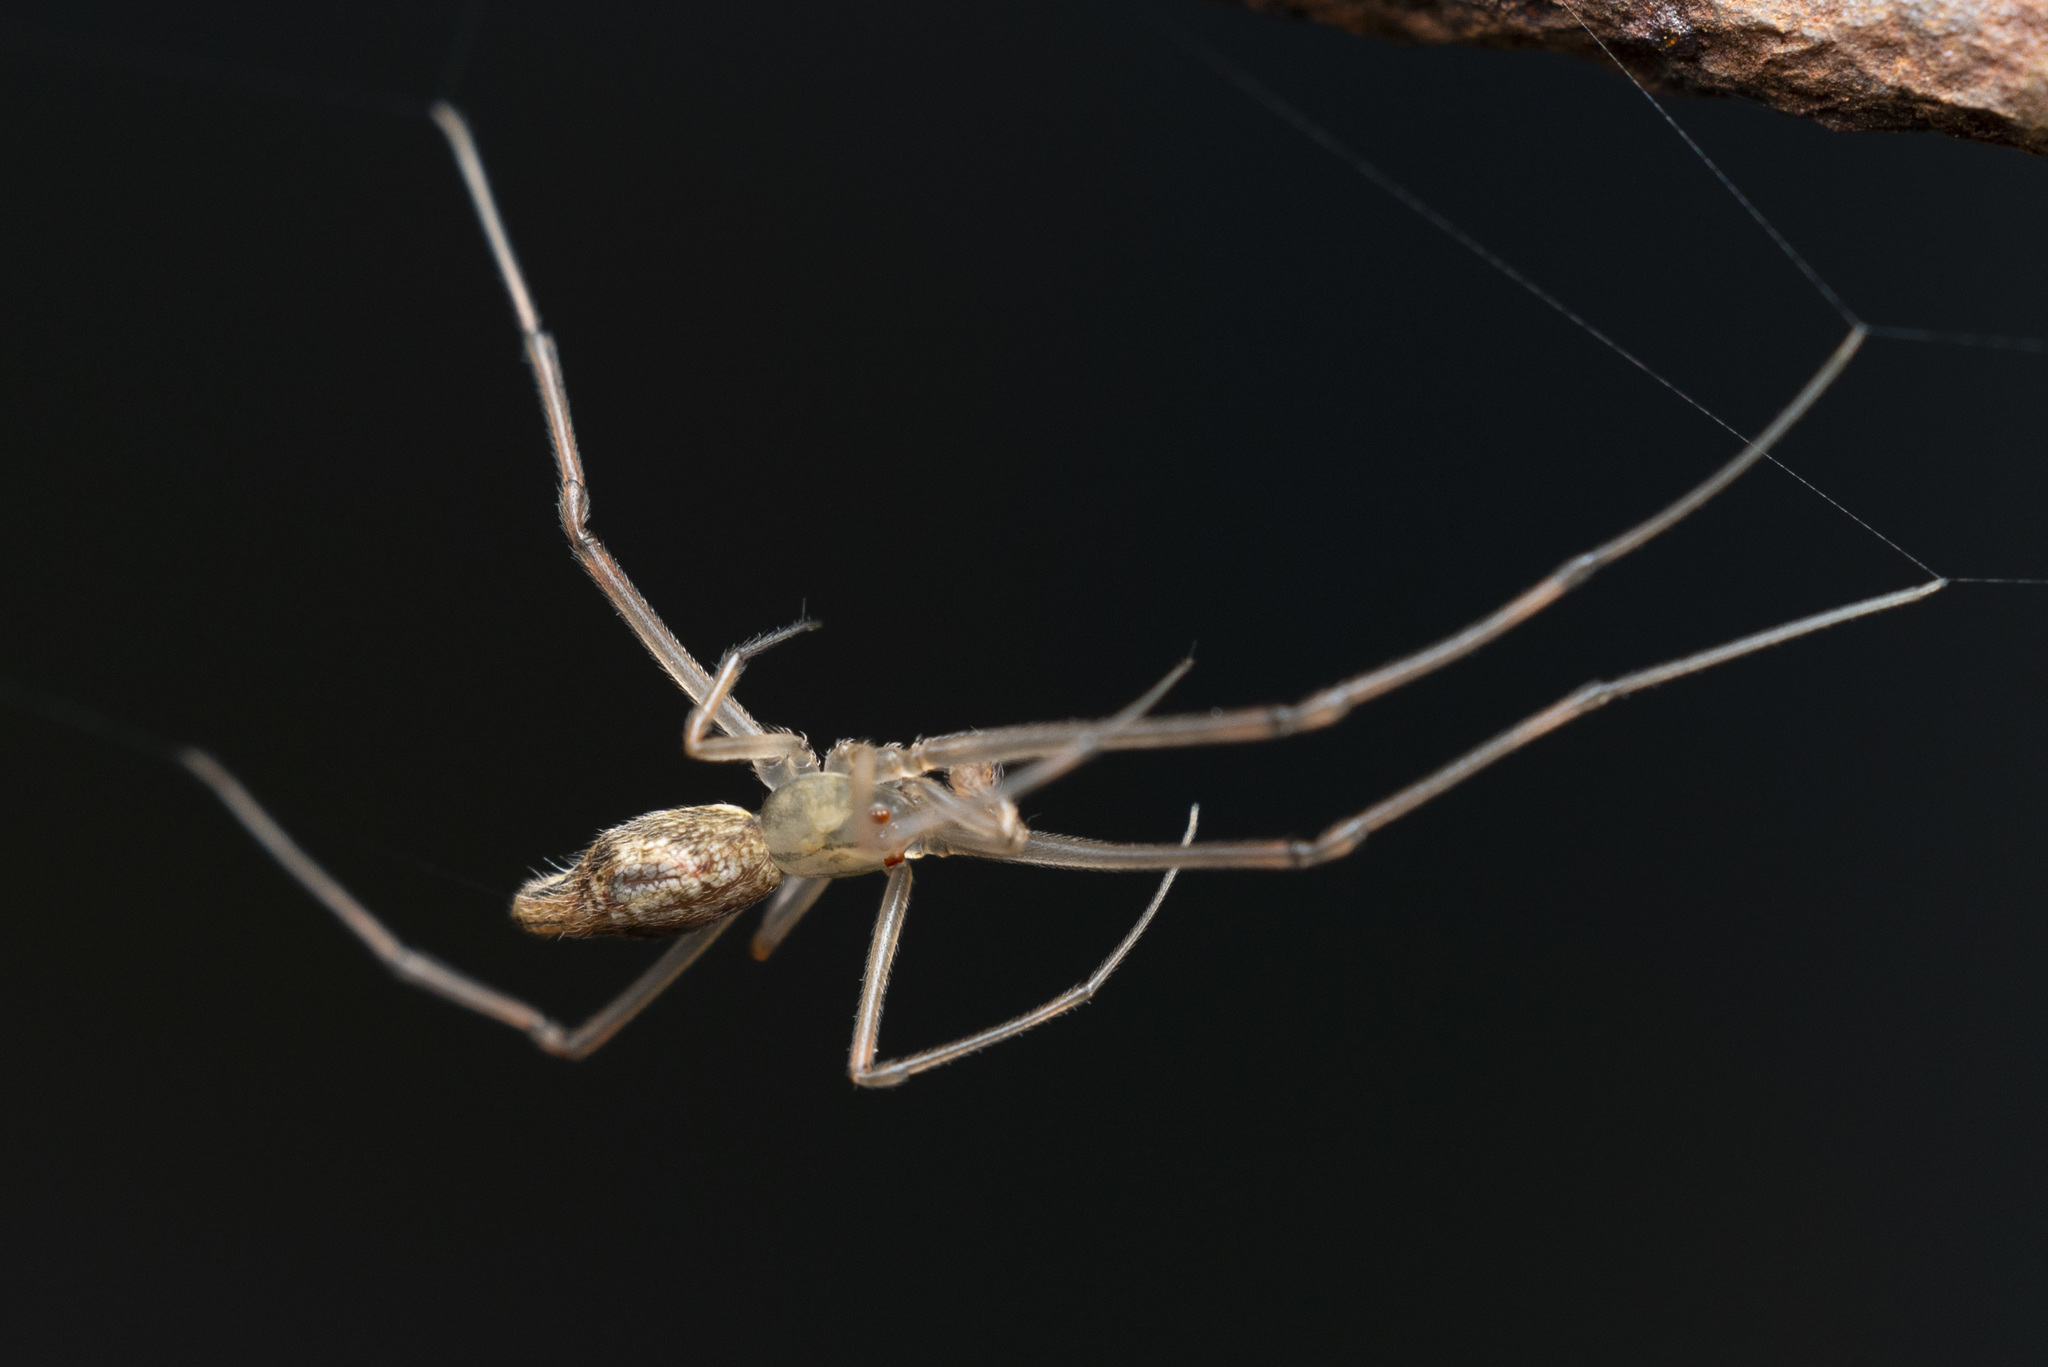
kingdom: Animalia
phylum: Arthropoda
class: Arachnida
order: Araneae
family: Theridiidae
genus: Moneta
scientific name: Moneta mirabilis
